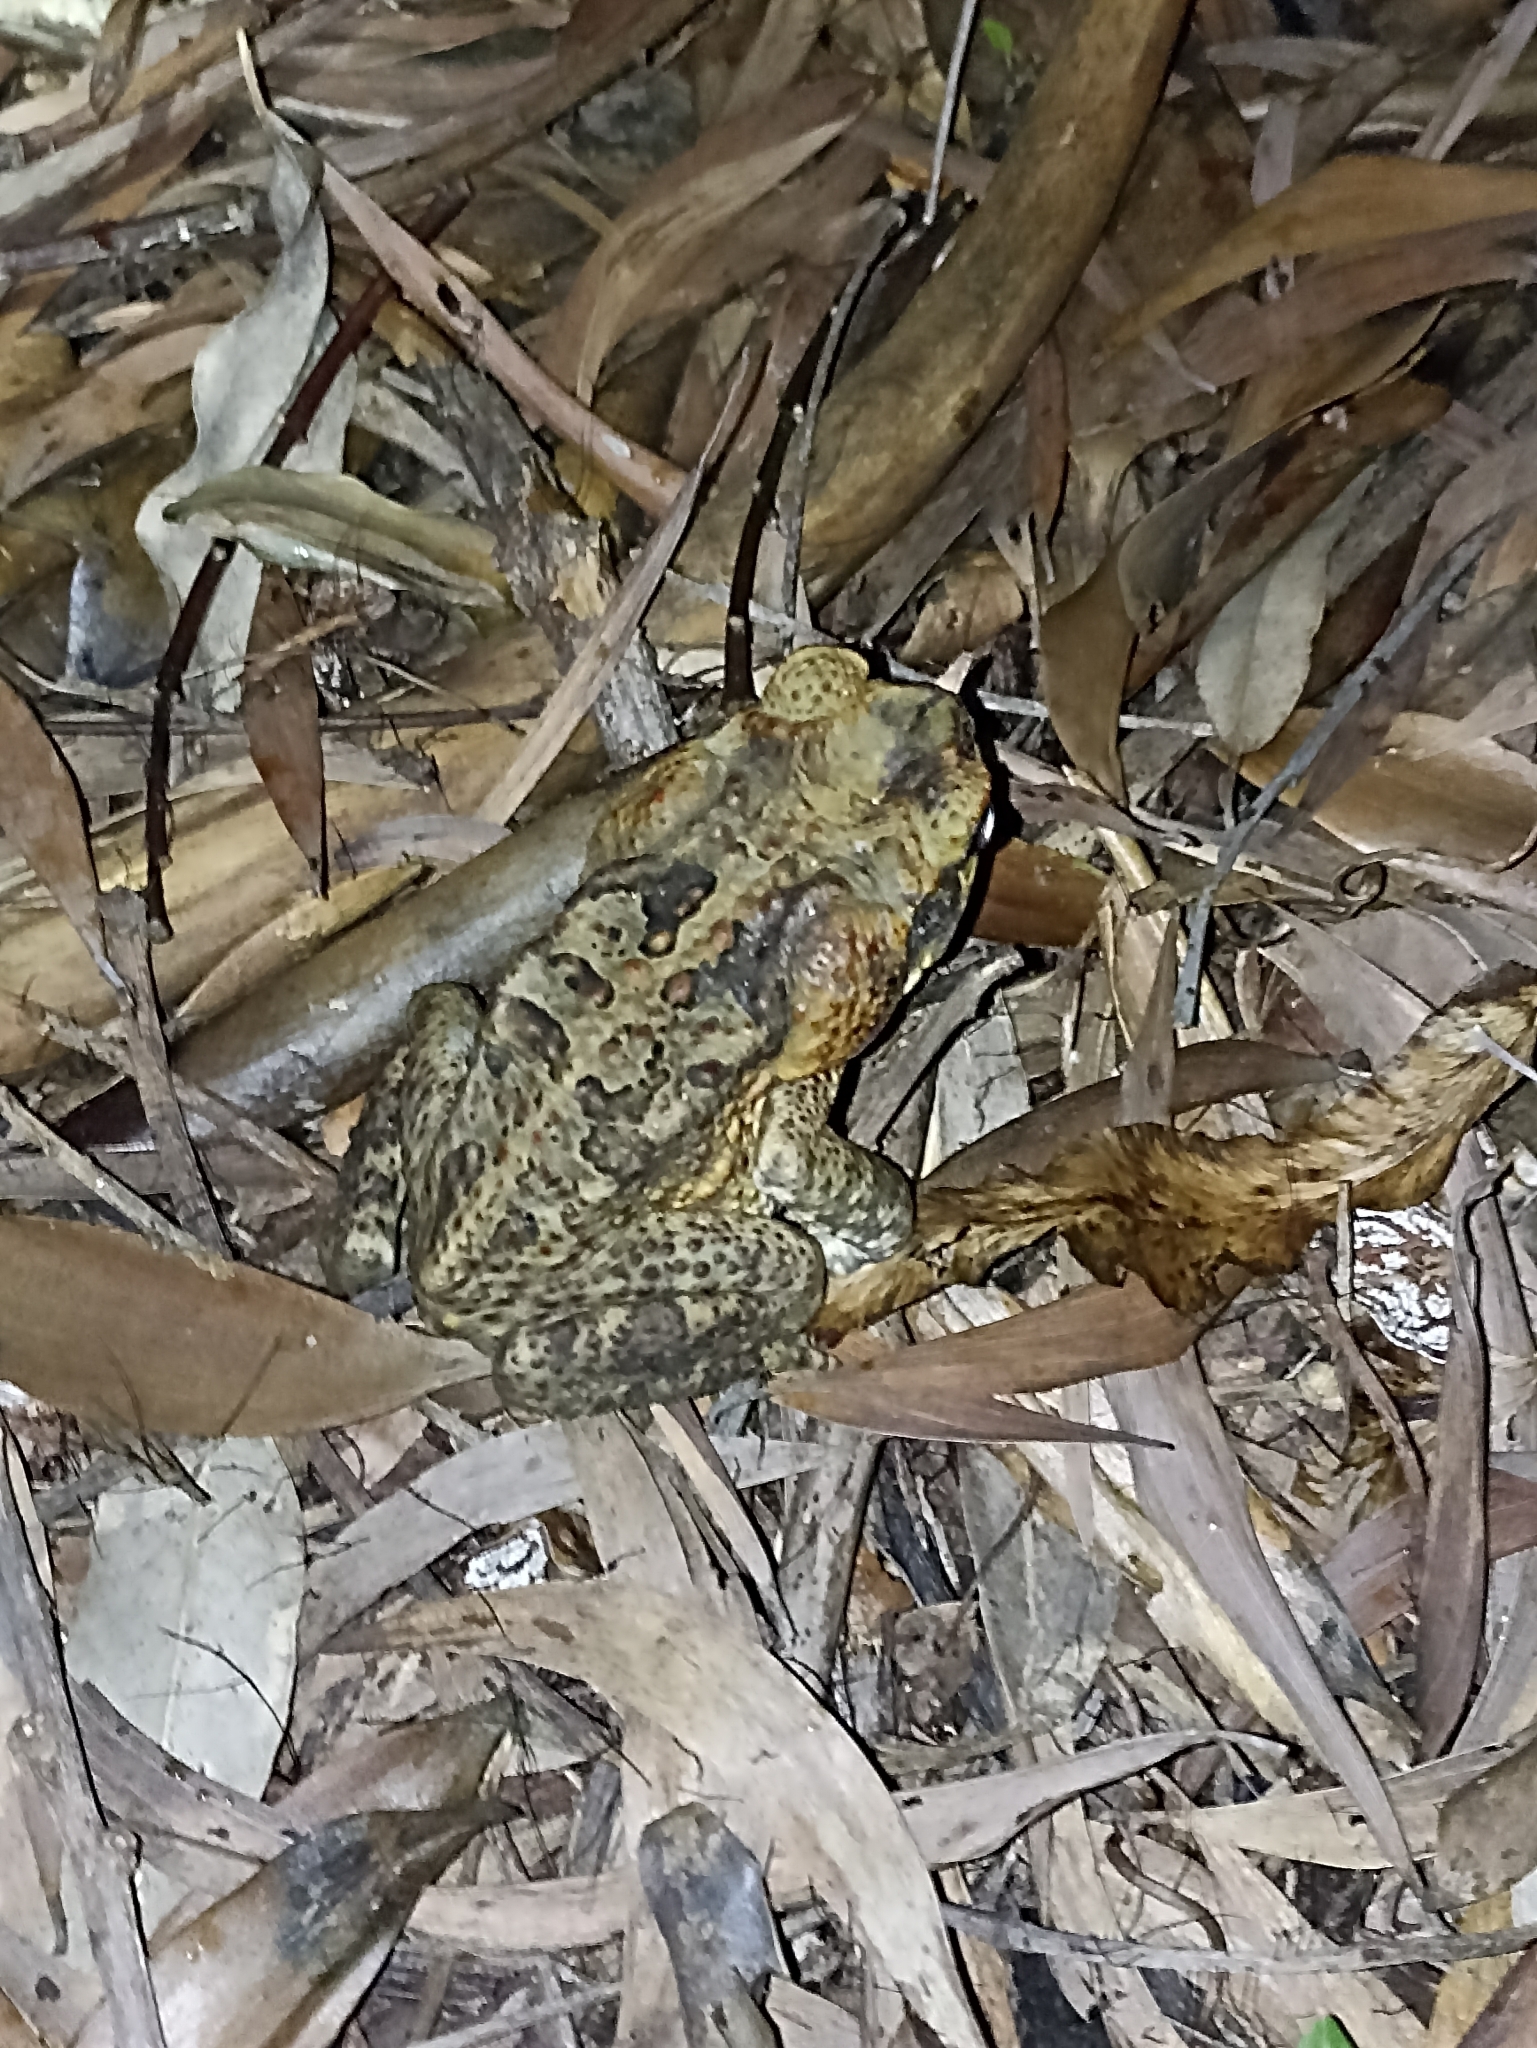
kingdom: Animalia
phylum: Chordata
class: Amphibia
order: Anura
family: Bufonidae
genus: Rhinella
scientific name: Rhinella marina
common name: Cane toad
